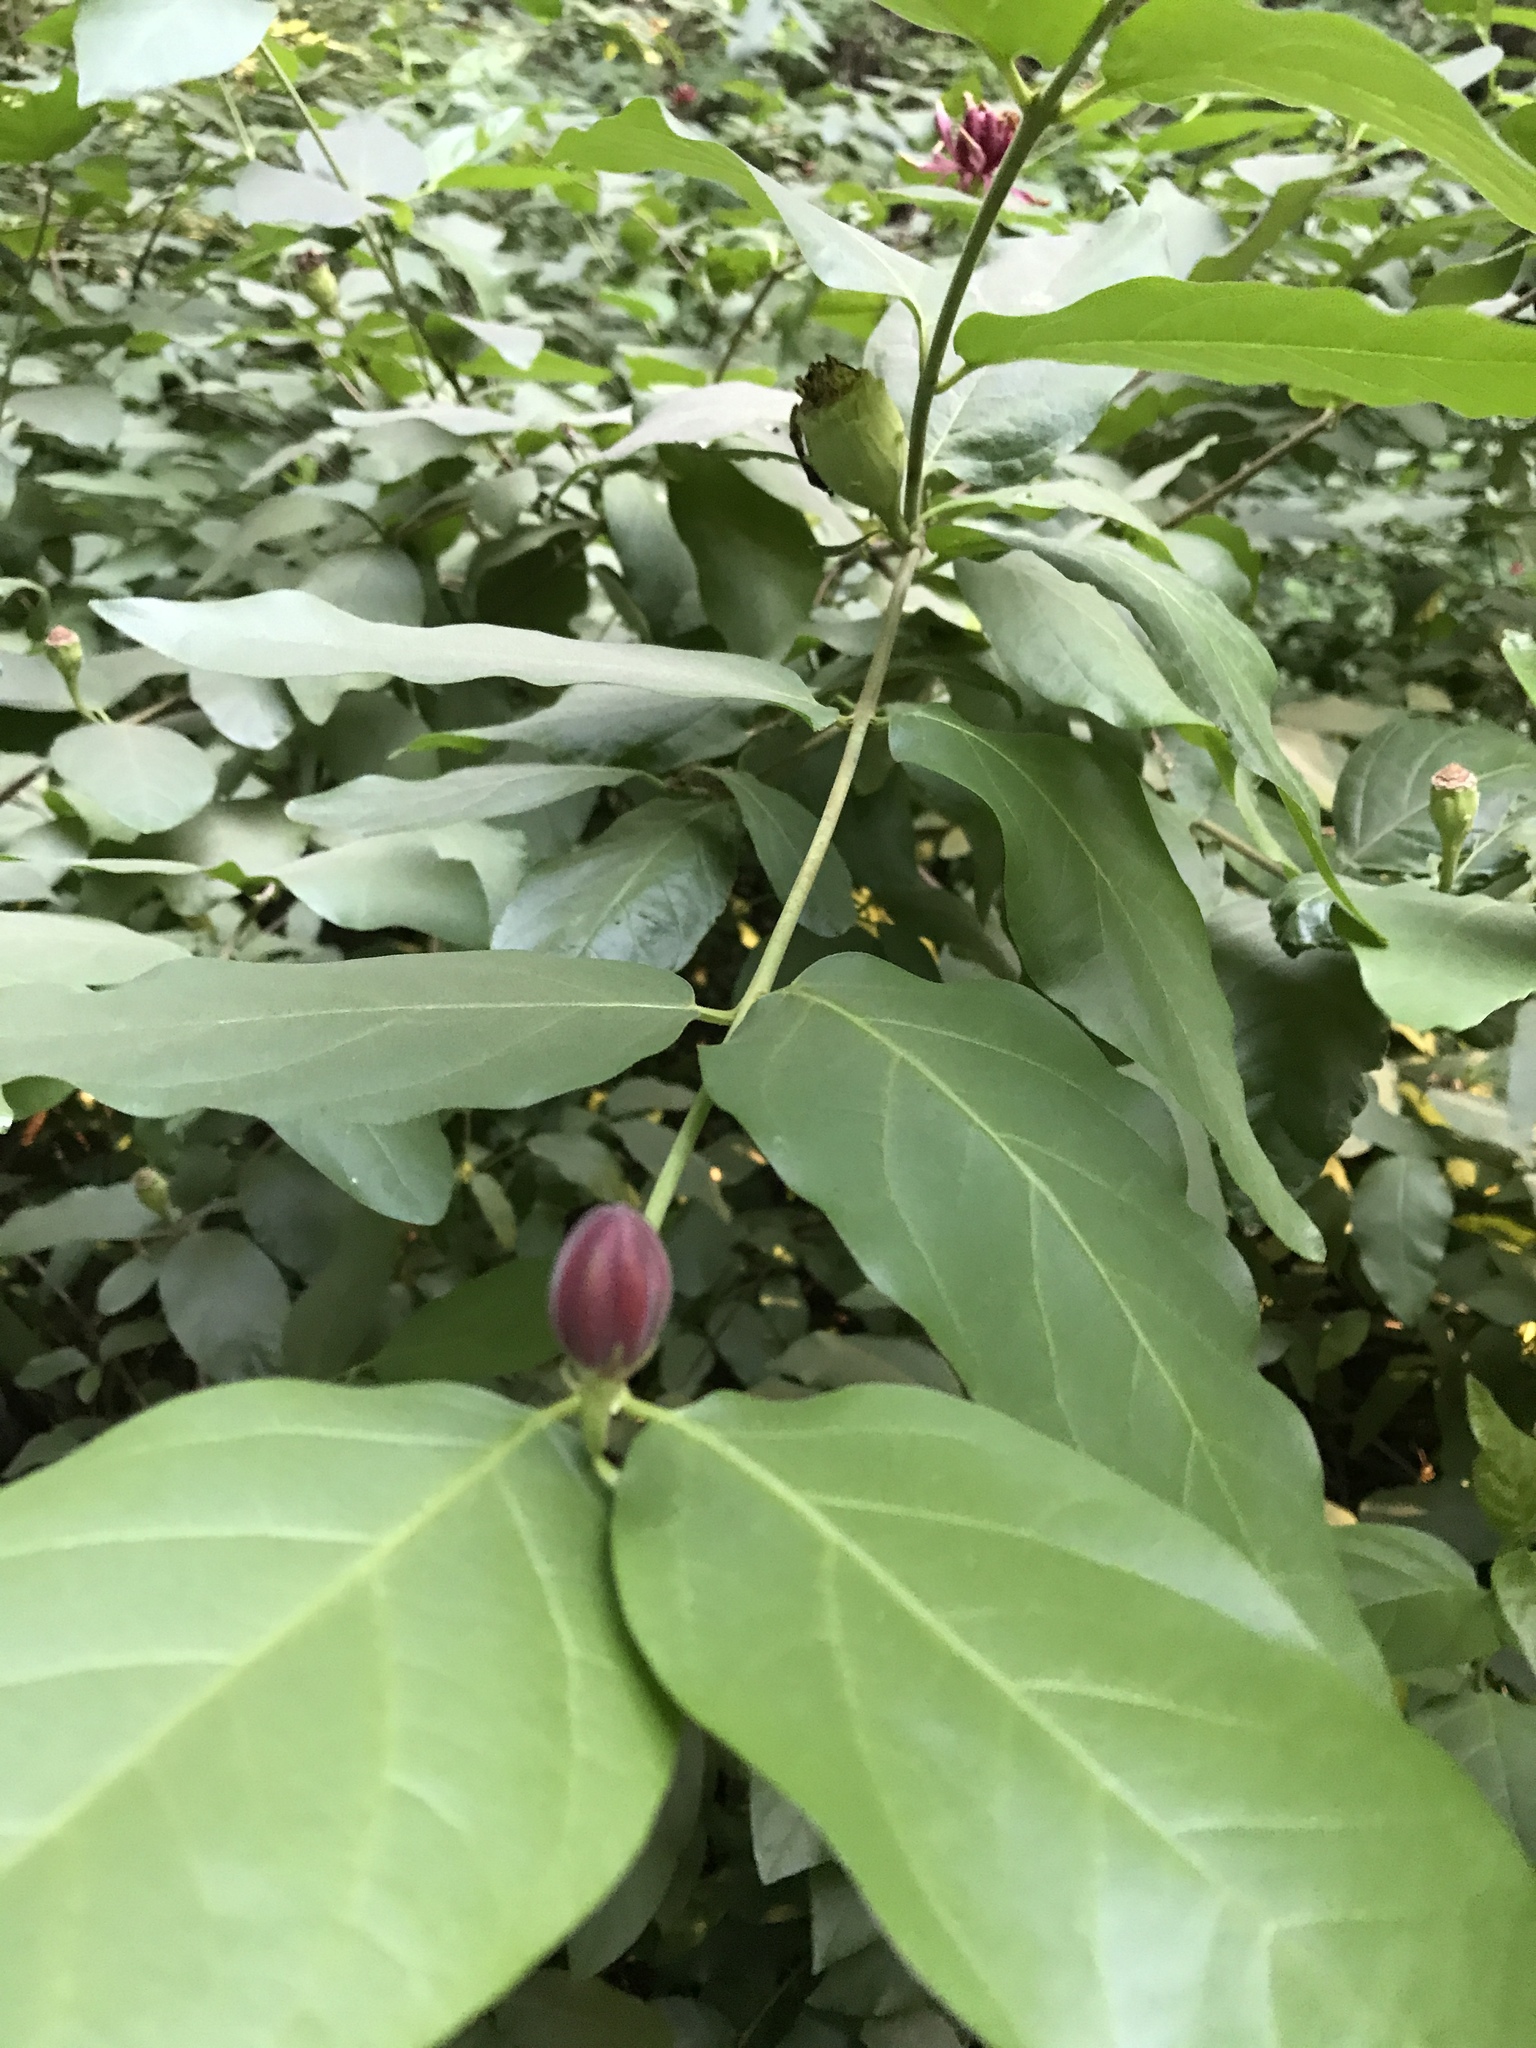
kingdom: Plantae
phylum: Tracheophyta
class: Magnoliopsida
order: Laurales
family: Calycanthaceae
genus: Calycanthus
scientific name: Calycanthus occidentalis
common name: California spicebush
